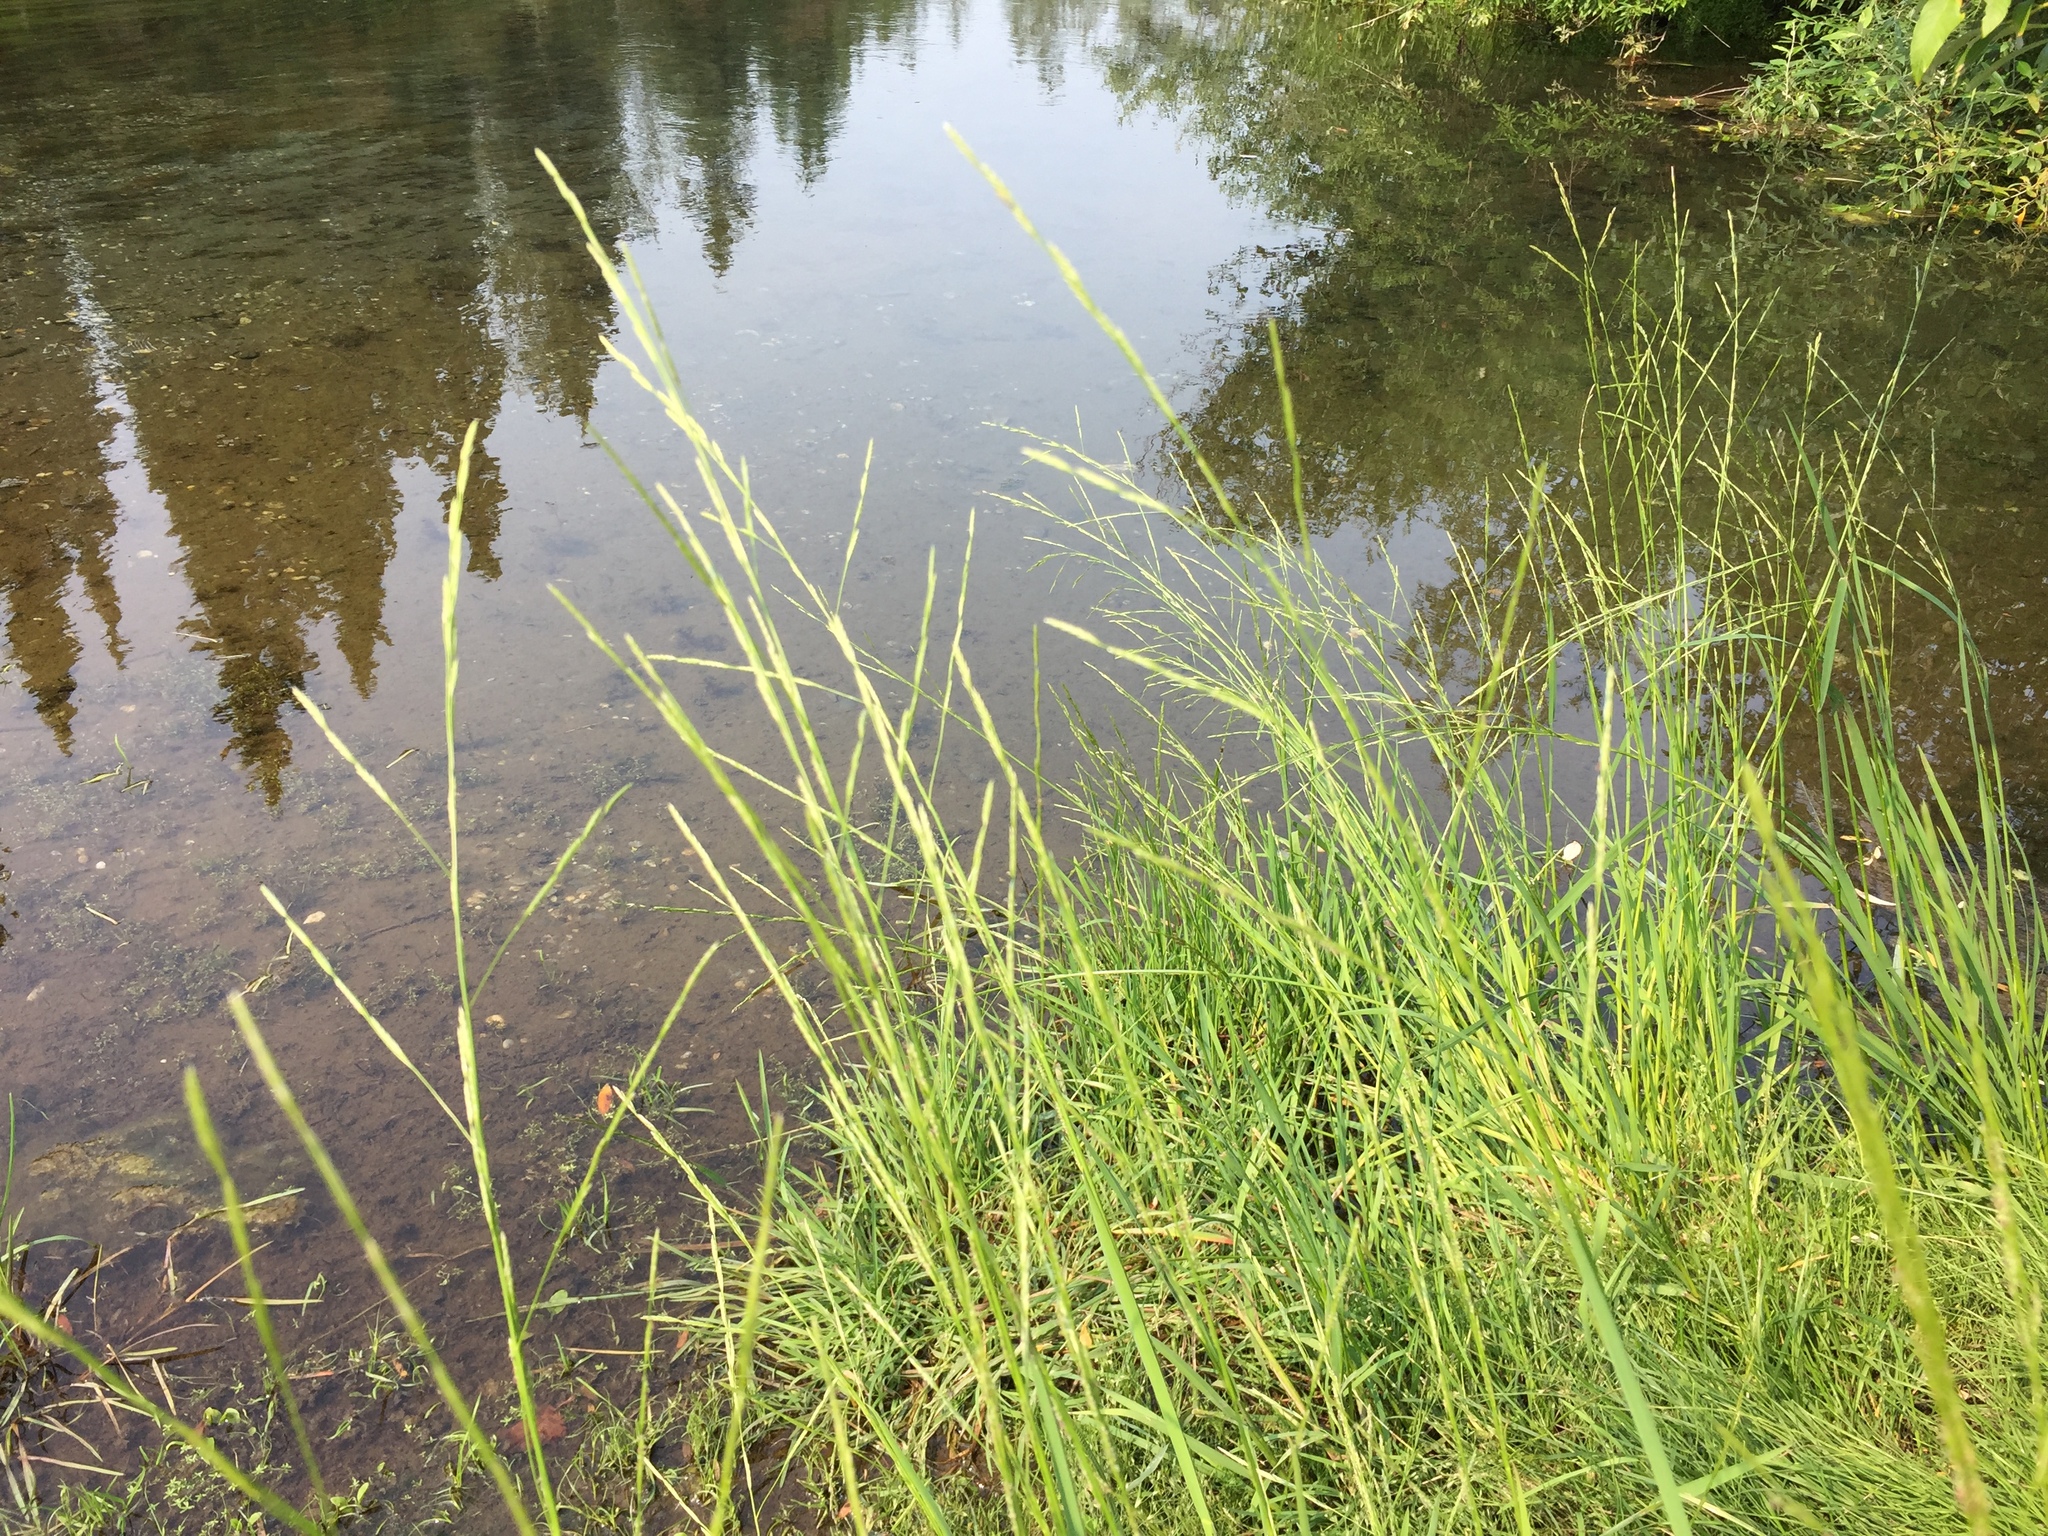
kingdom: Plantae
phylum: Tracheophyta
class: Liliopsida
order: Poales
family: Poaceae
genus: Glyceria
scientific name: Glyceria borealis
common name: Boreal glyceria
